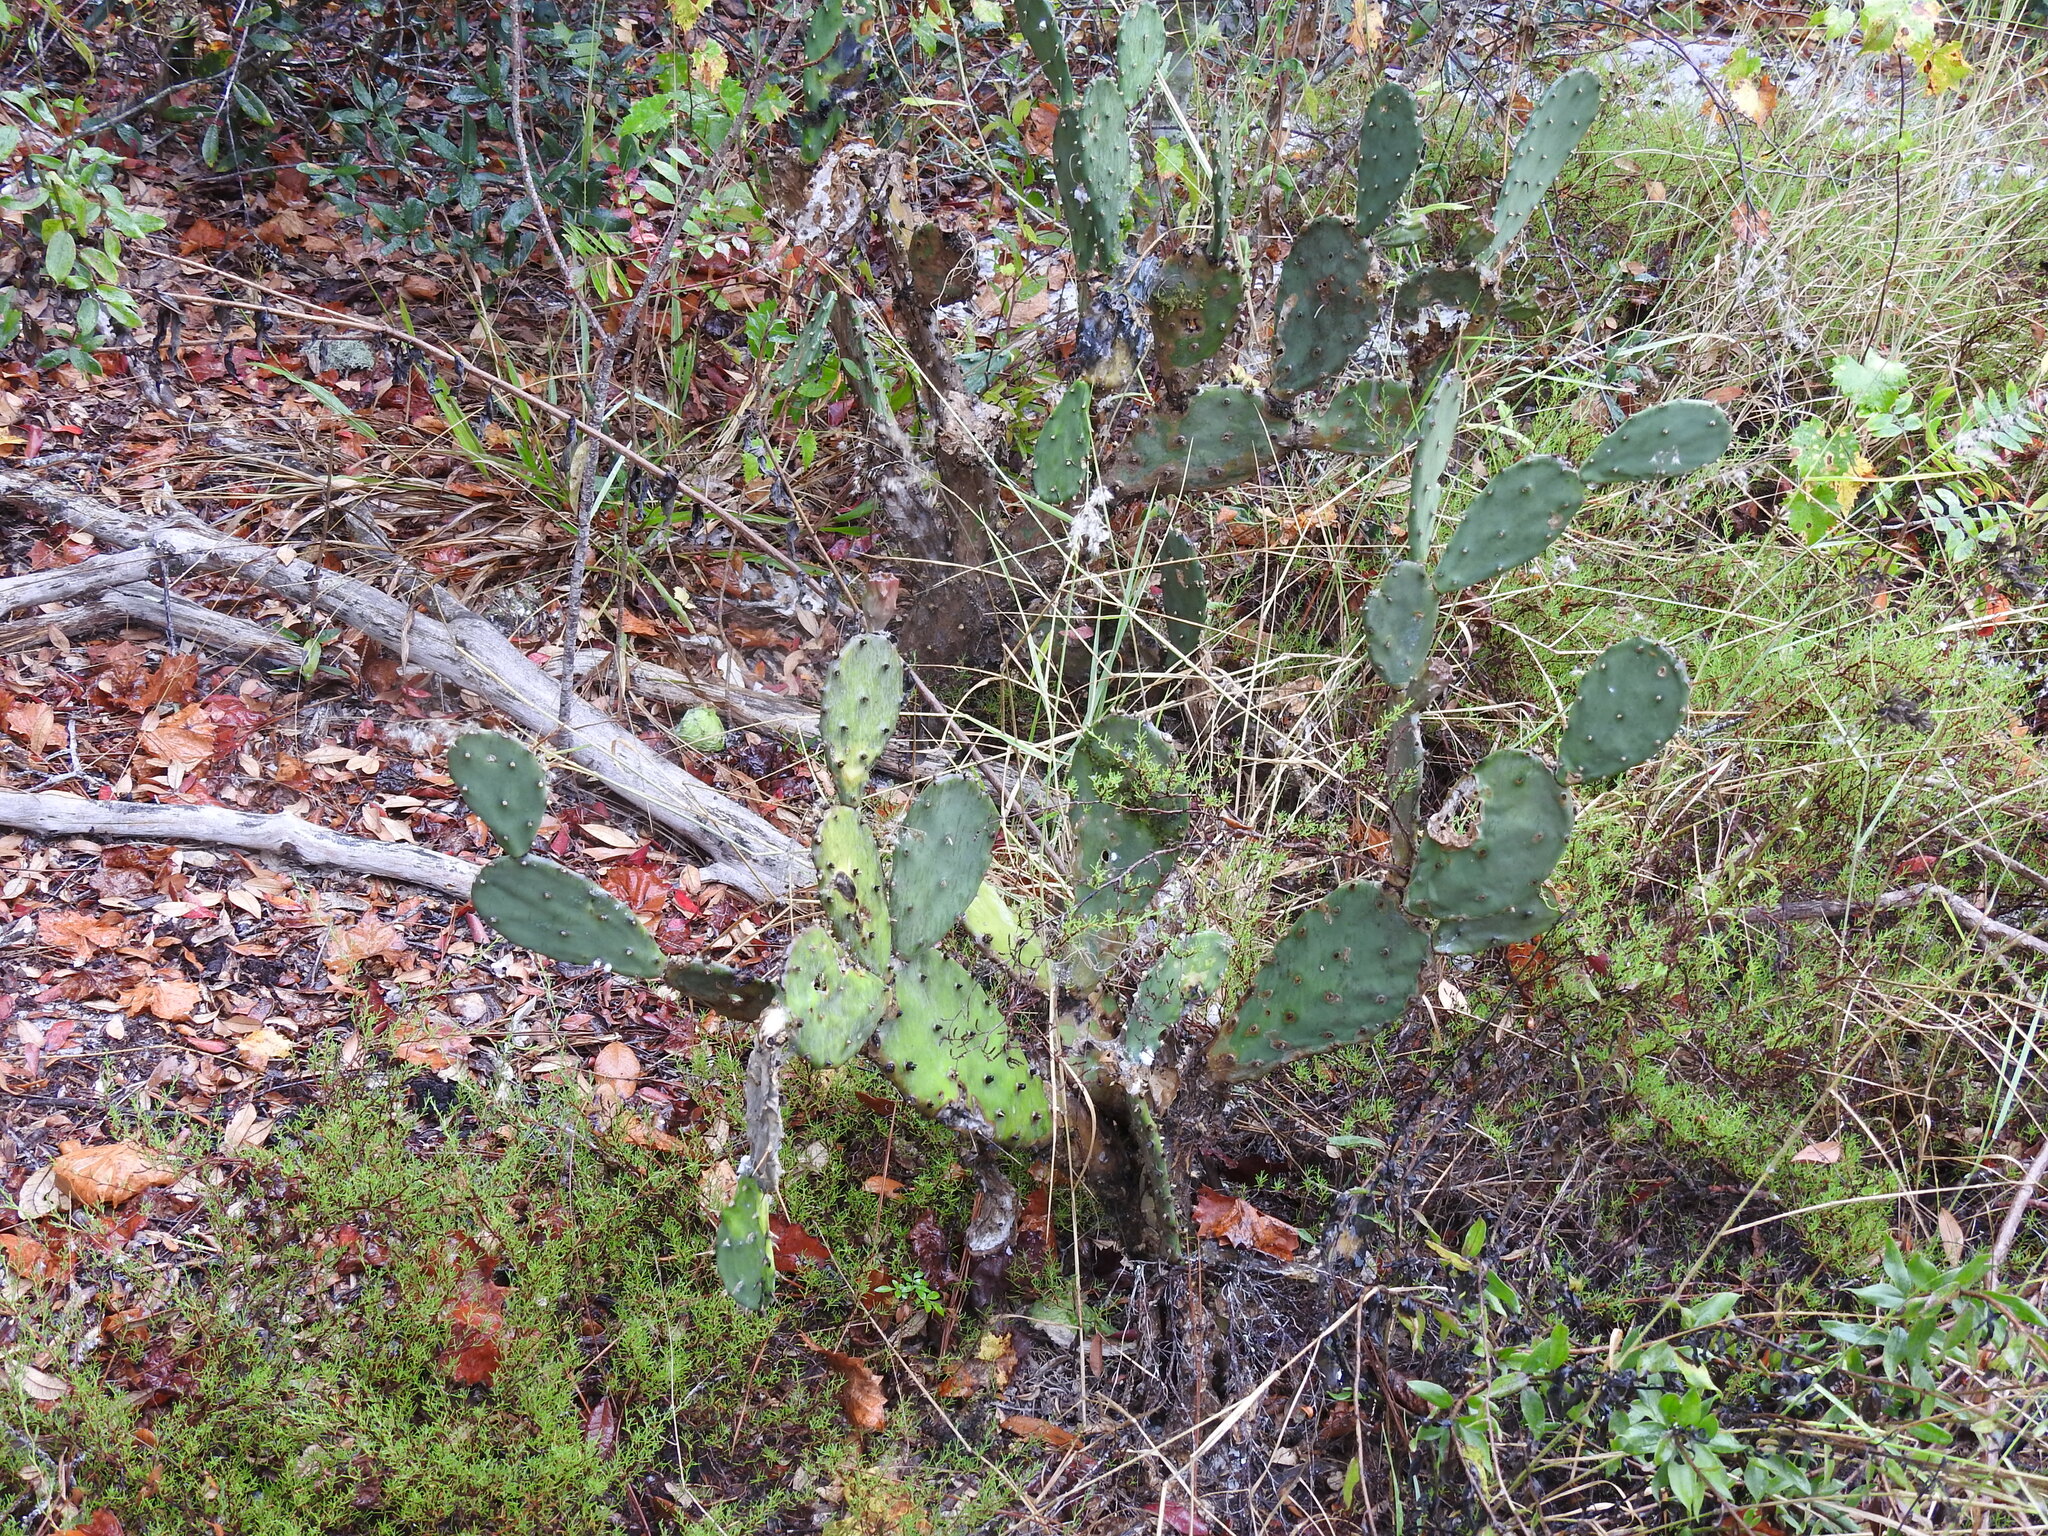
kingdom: Plantae
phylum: Tracheophyta
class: Magnoliopsida
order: Caryophyllales
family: Cactaceae
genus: Opuntia
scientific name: Opuntia austrina
